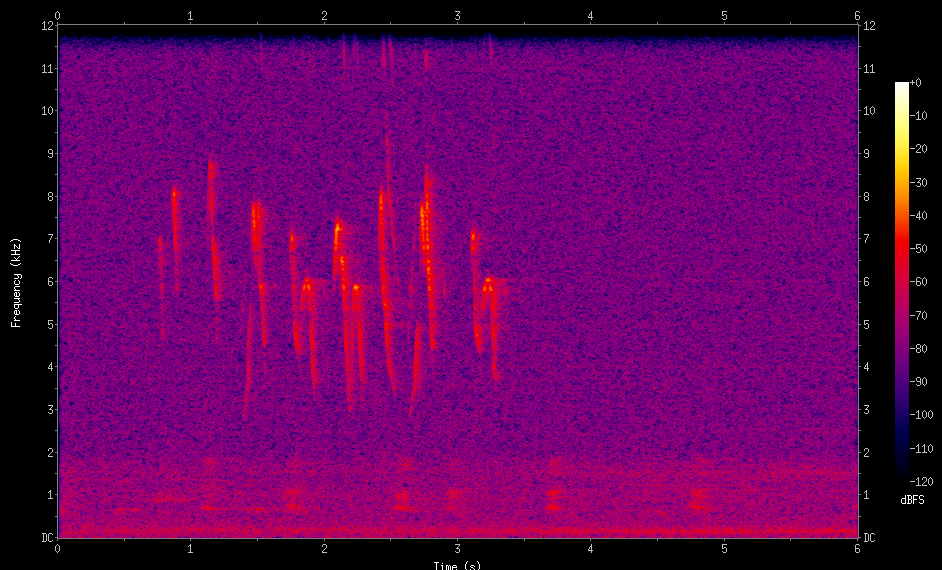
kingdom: Animalia
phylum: Chordata
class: Aves
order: Passeriformes
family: Thraupidae
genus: Sicalis
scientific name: Sicalis flaveola
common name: Saffron finch
